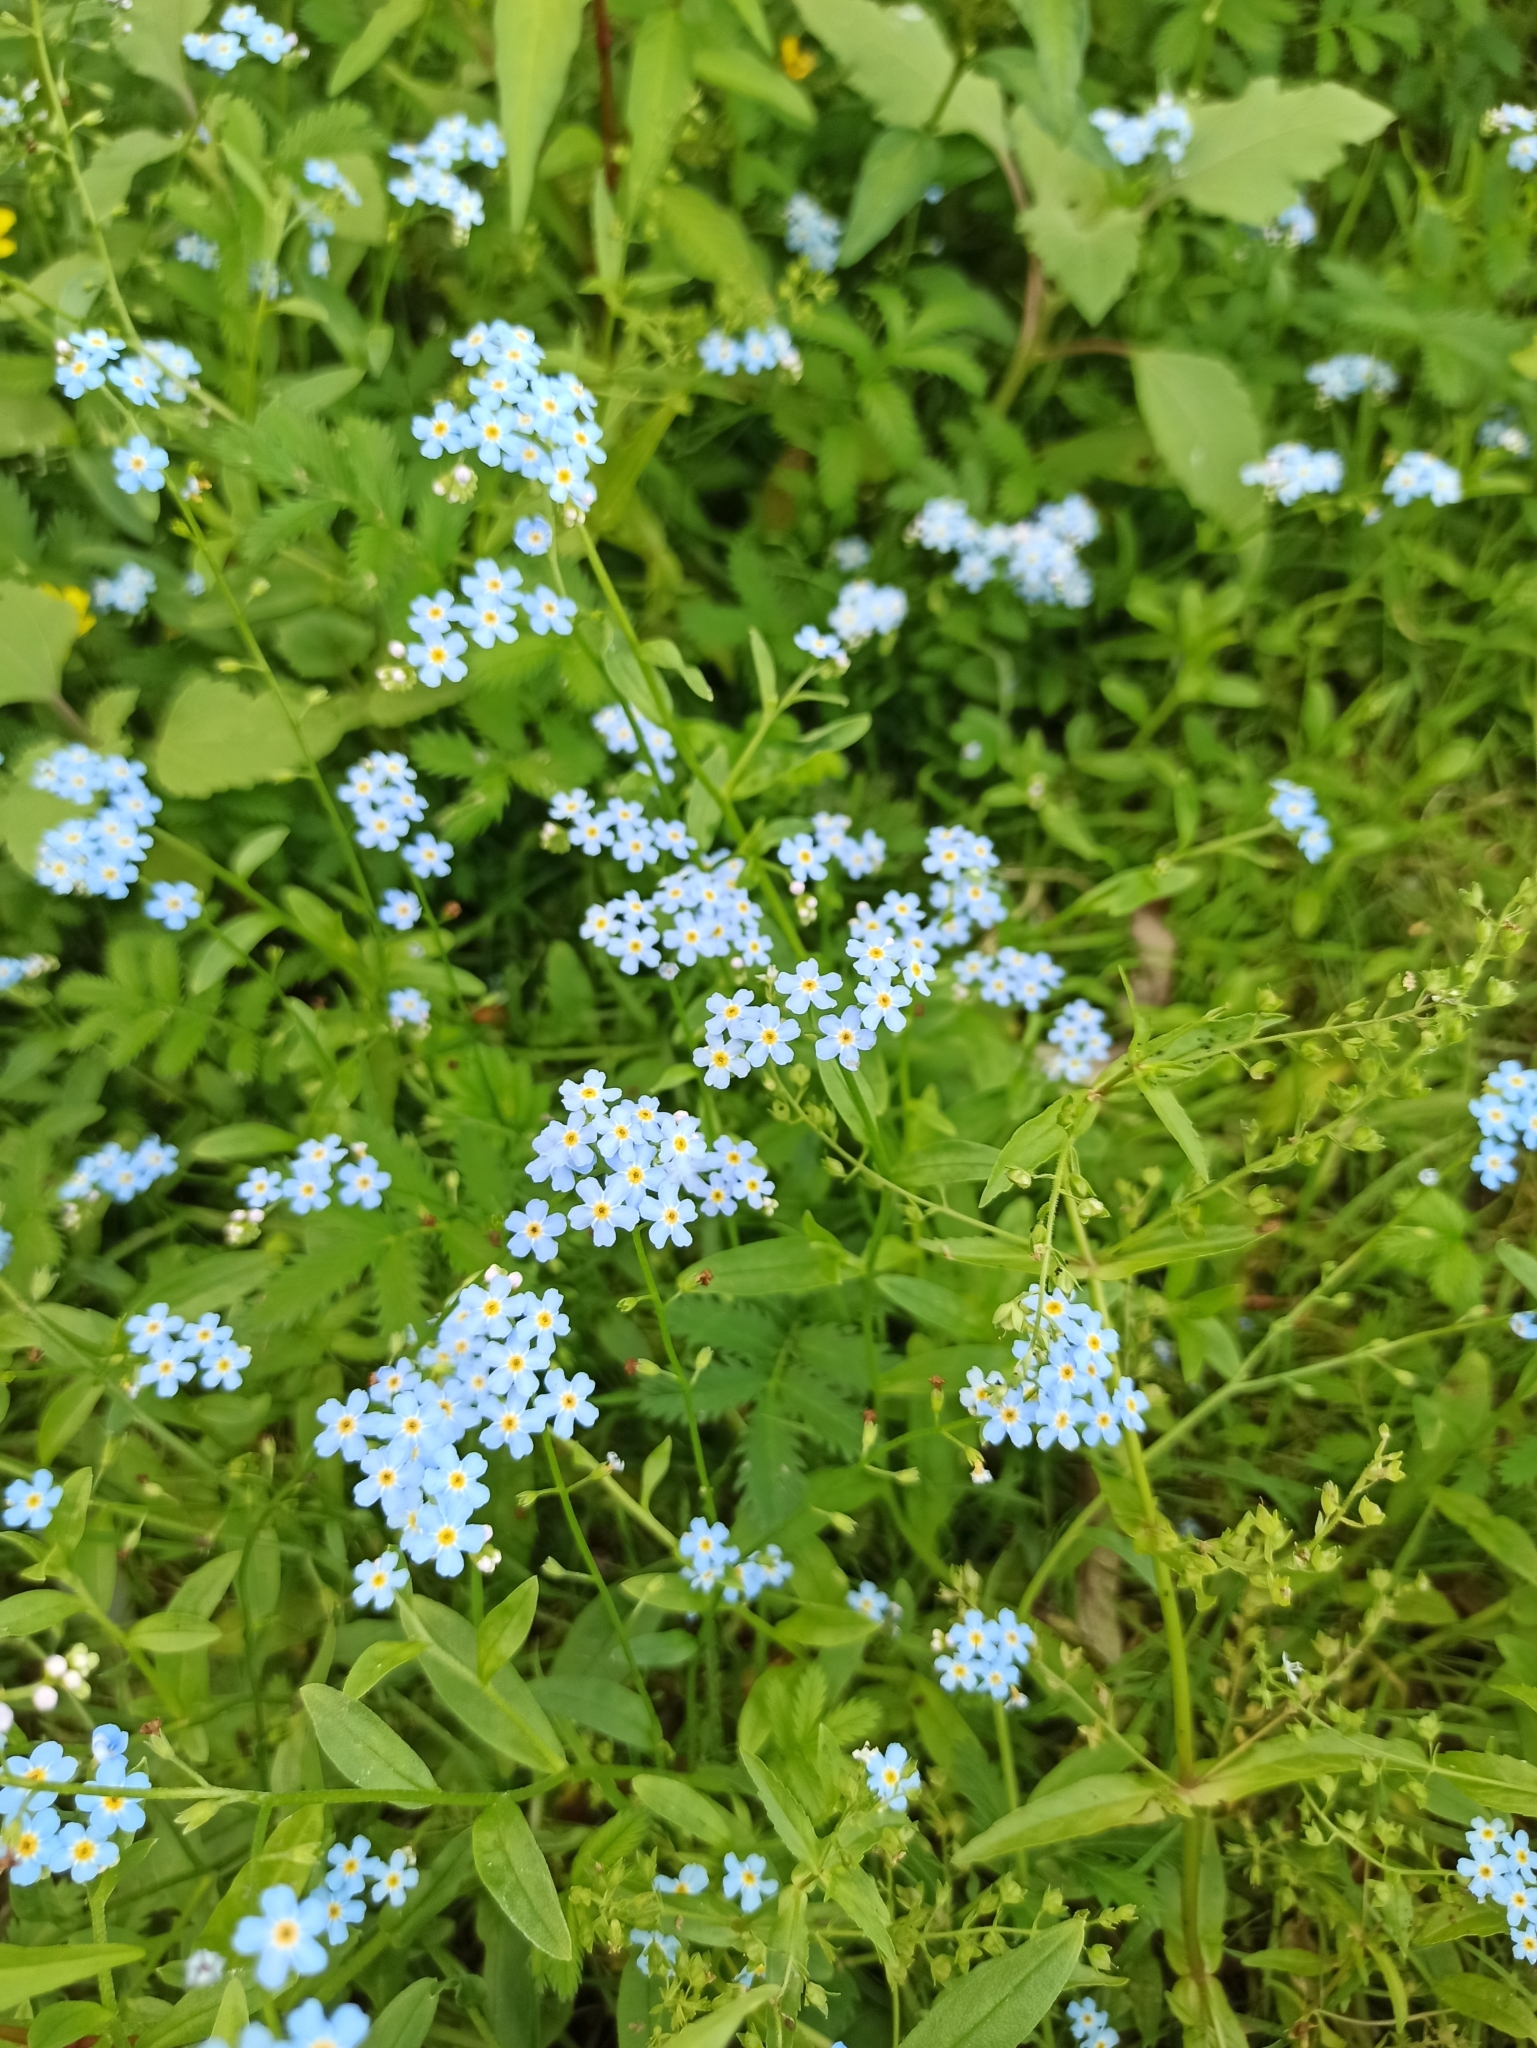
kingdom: Plantae
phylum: Tracheophyta
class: Magnoliopsida
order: Boraginales
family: Boraginaceae
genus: Myosotis
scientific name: Myosotis scorpioides
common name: Water forget-me-not
